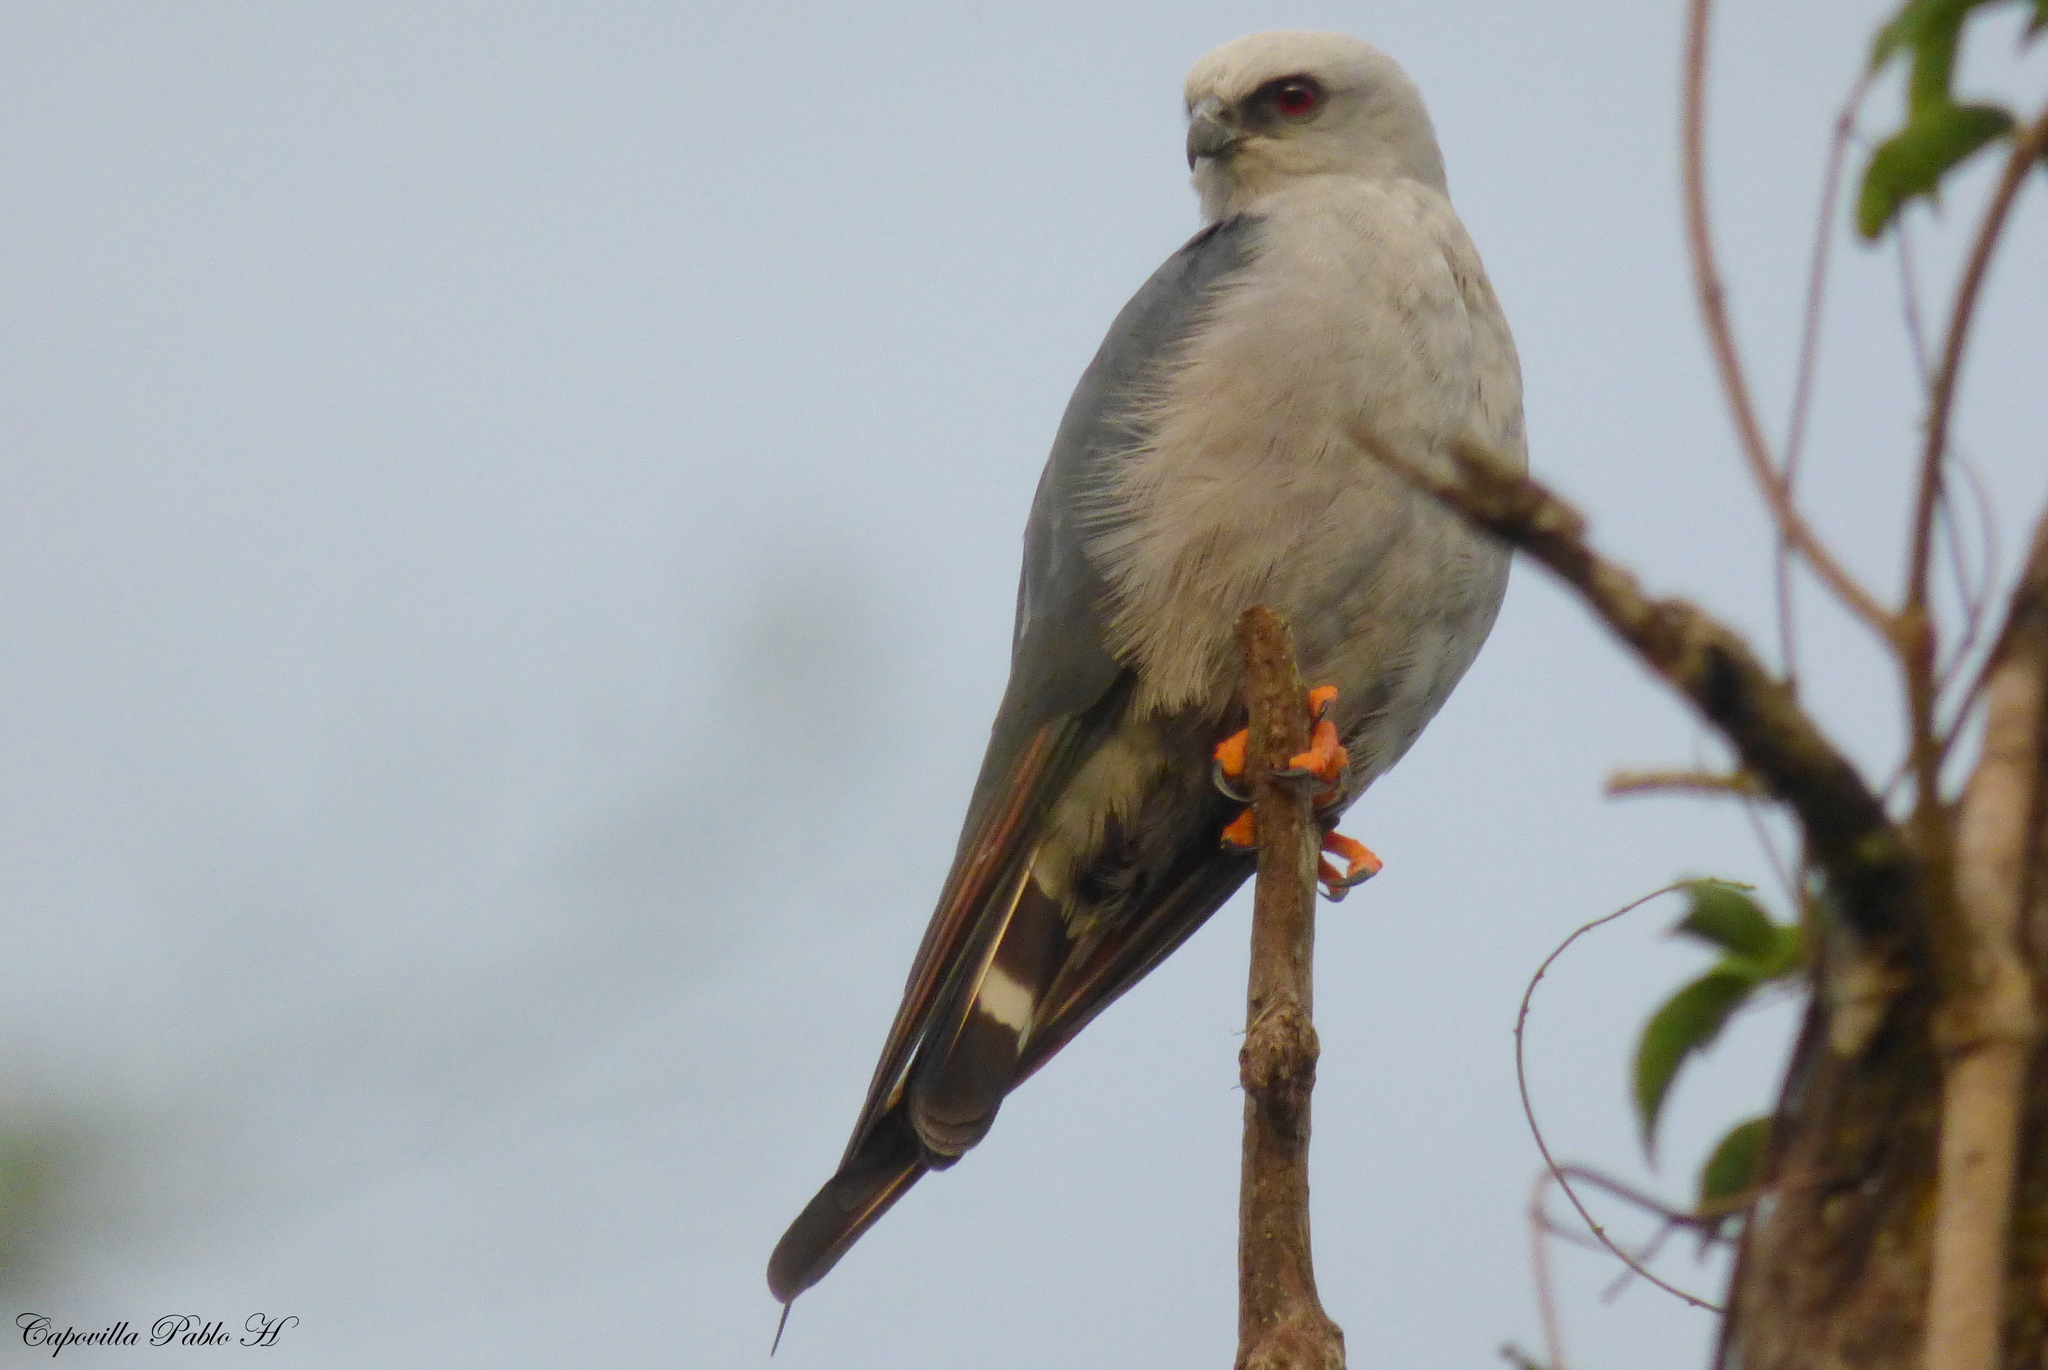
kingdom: Animalia
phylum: Chordata
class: Aves
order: Accipitriformes
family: Accipitridae
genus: Ictinia
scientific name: Ictinia plumbea
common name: Plumbeous kite
